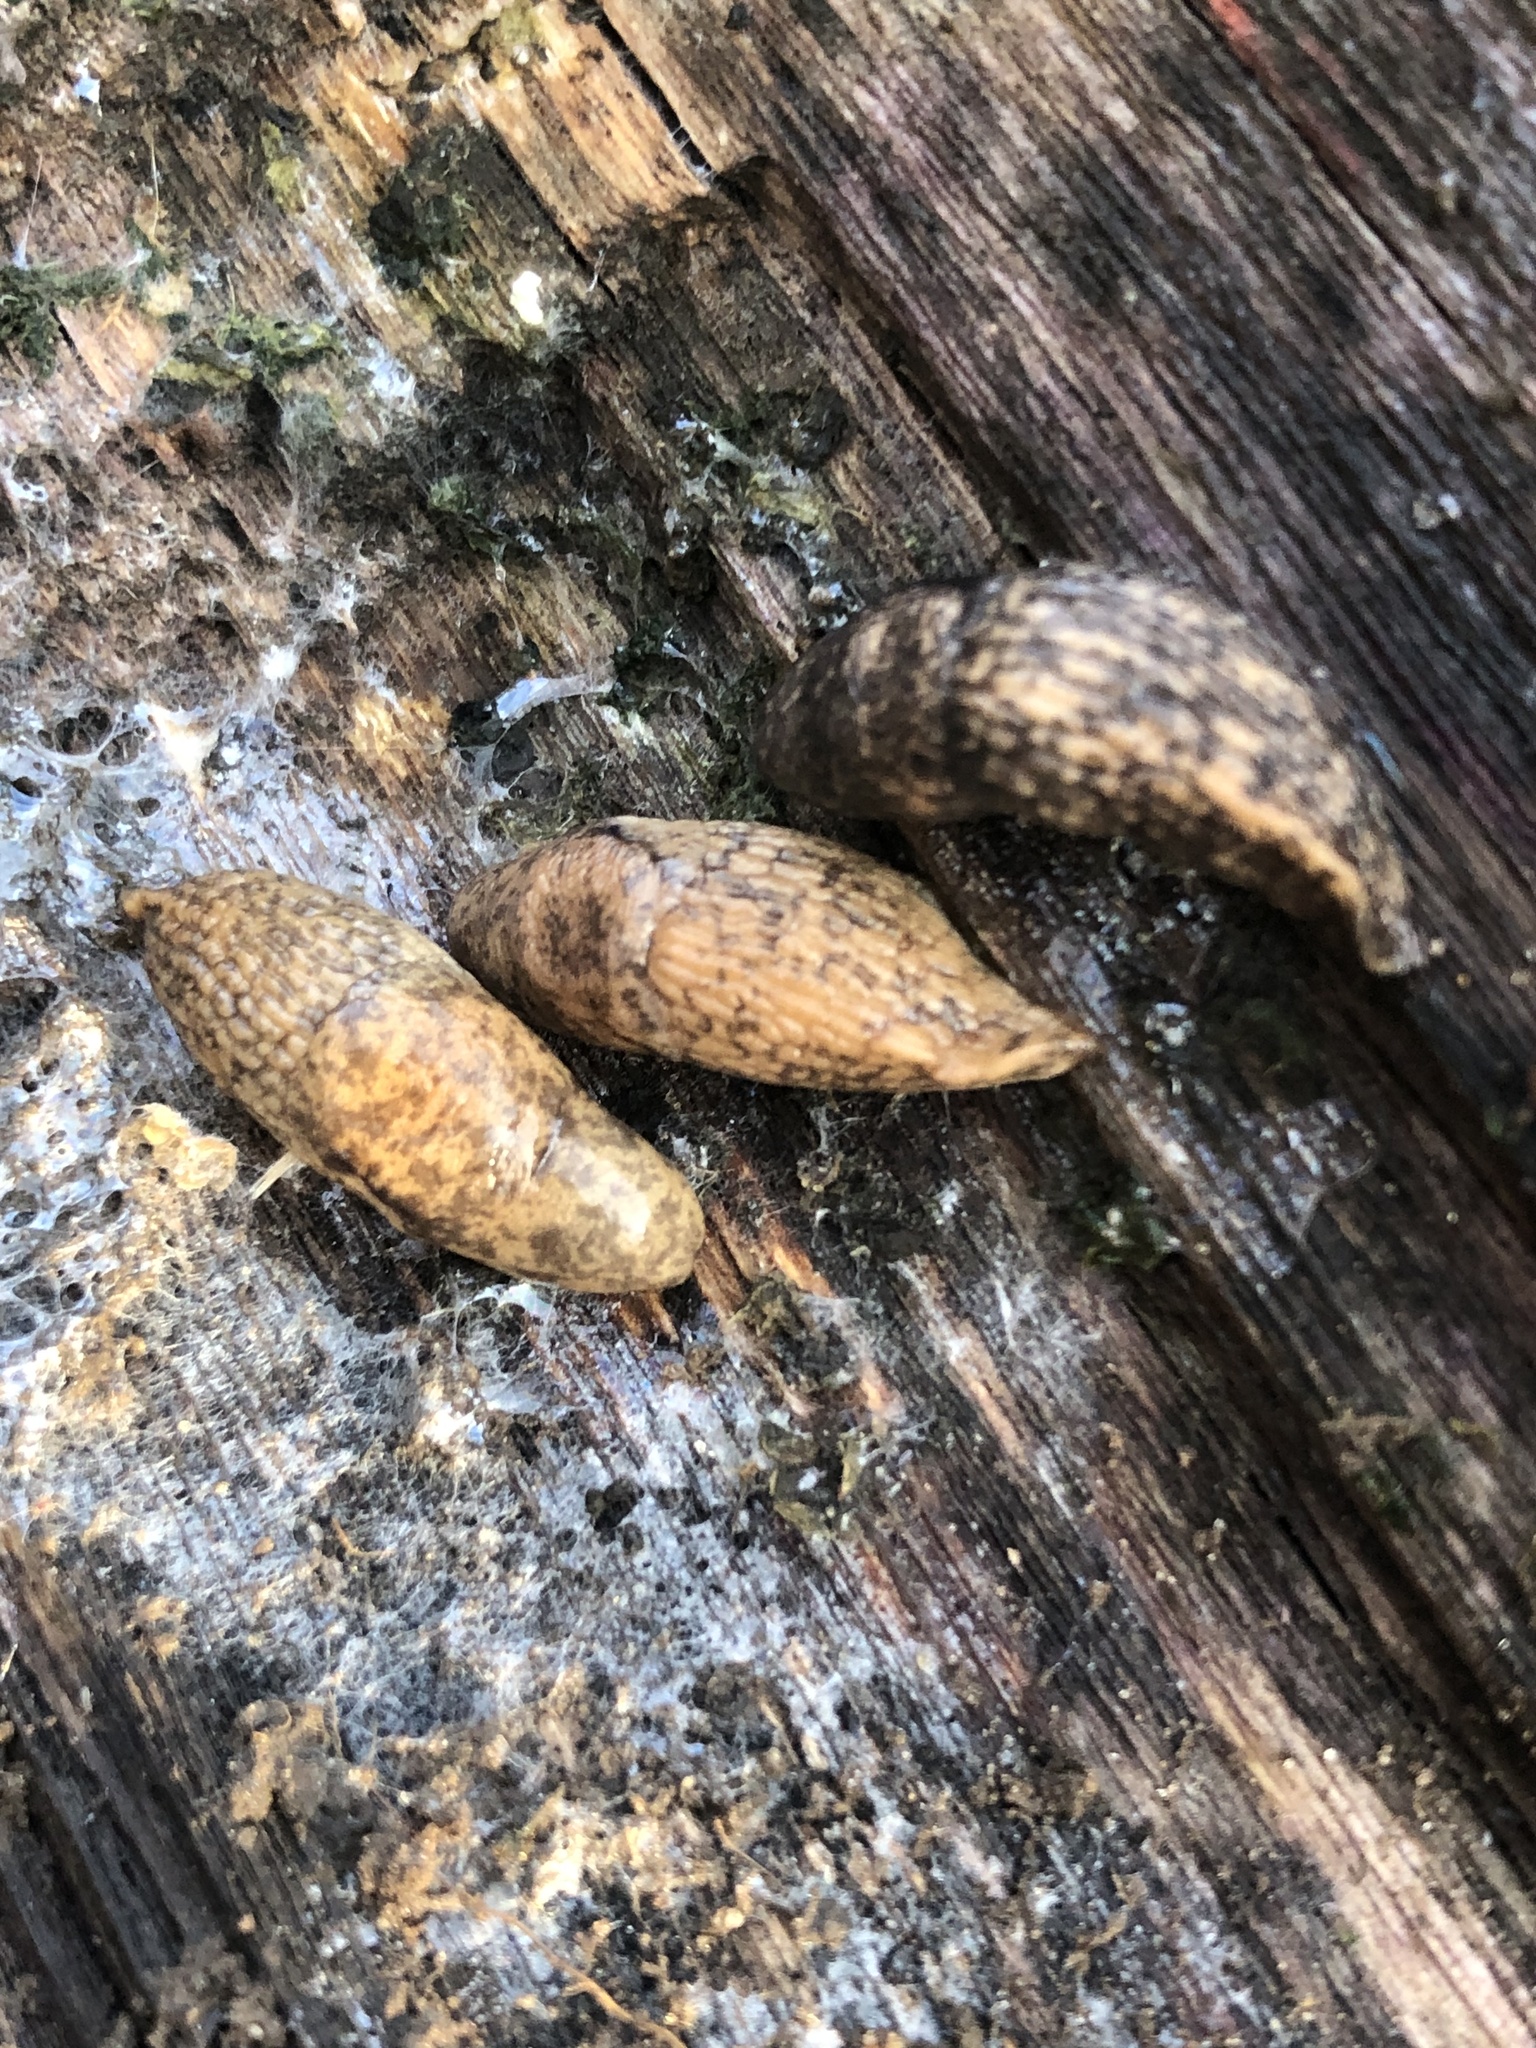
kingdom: Animalia
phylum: Mollusca
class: Gastropoda
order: Stylommatophora
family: Agriolimacidae
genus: Deroceras
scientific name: Deroceras reticulatum
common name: Gray field slug
